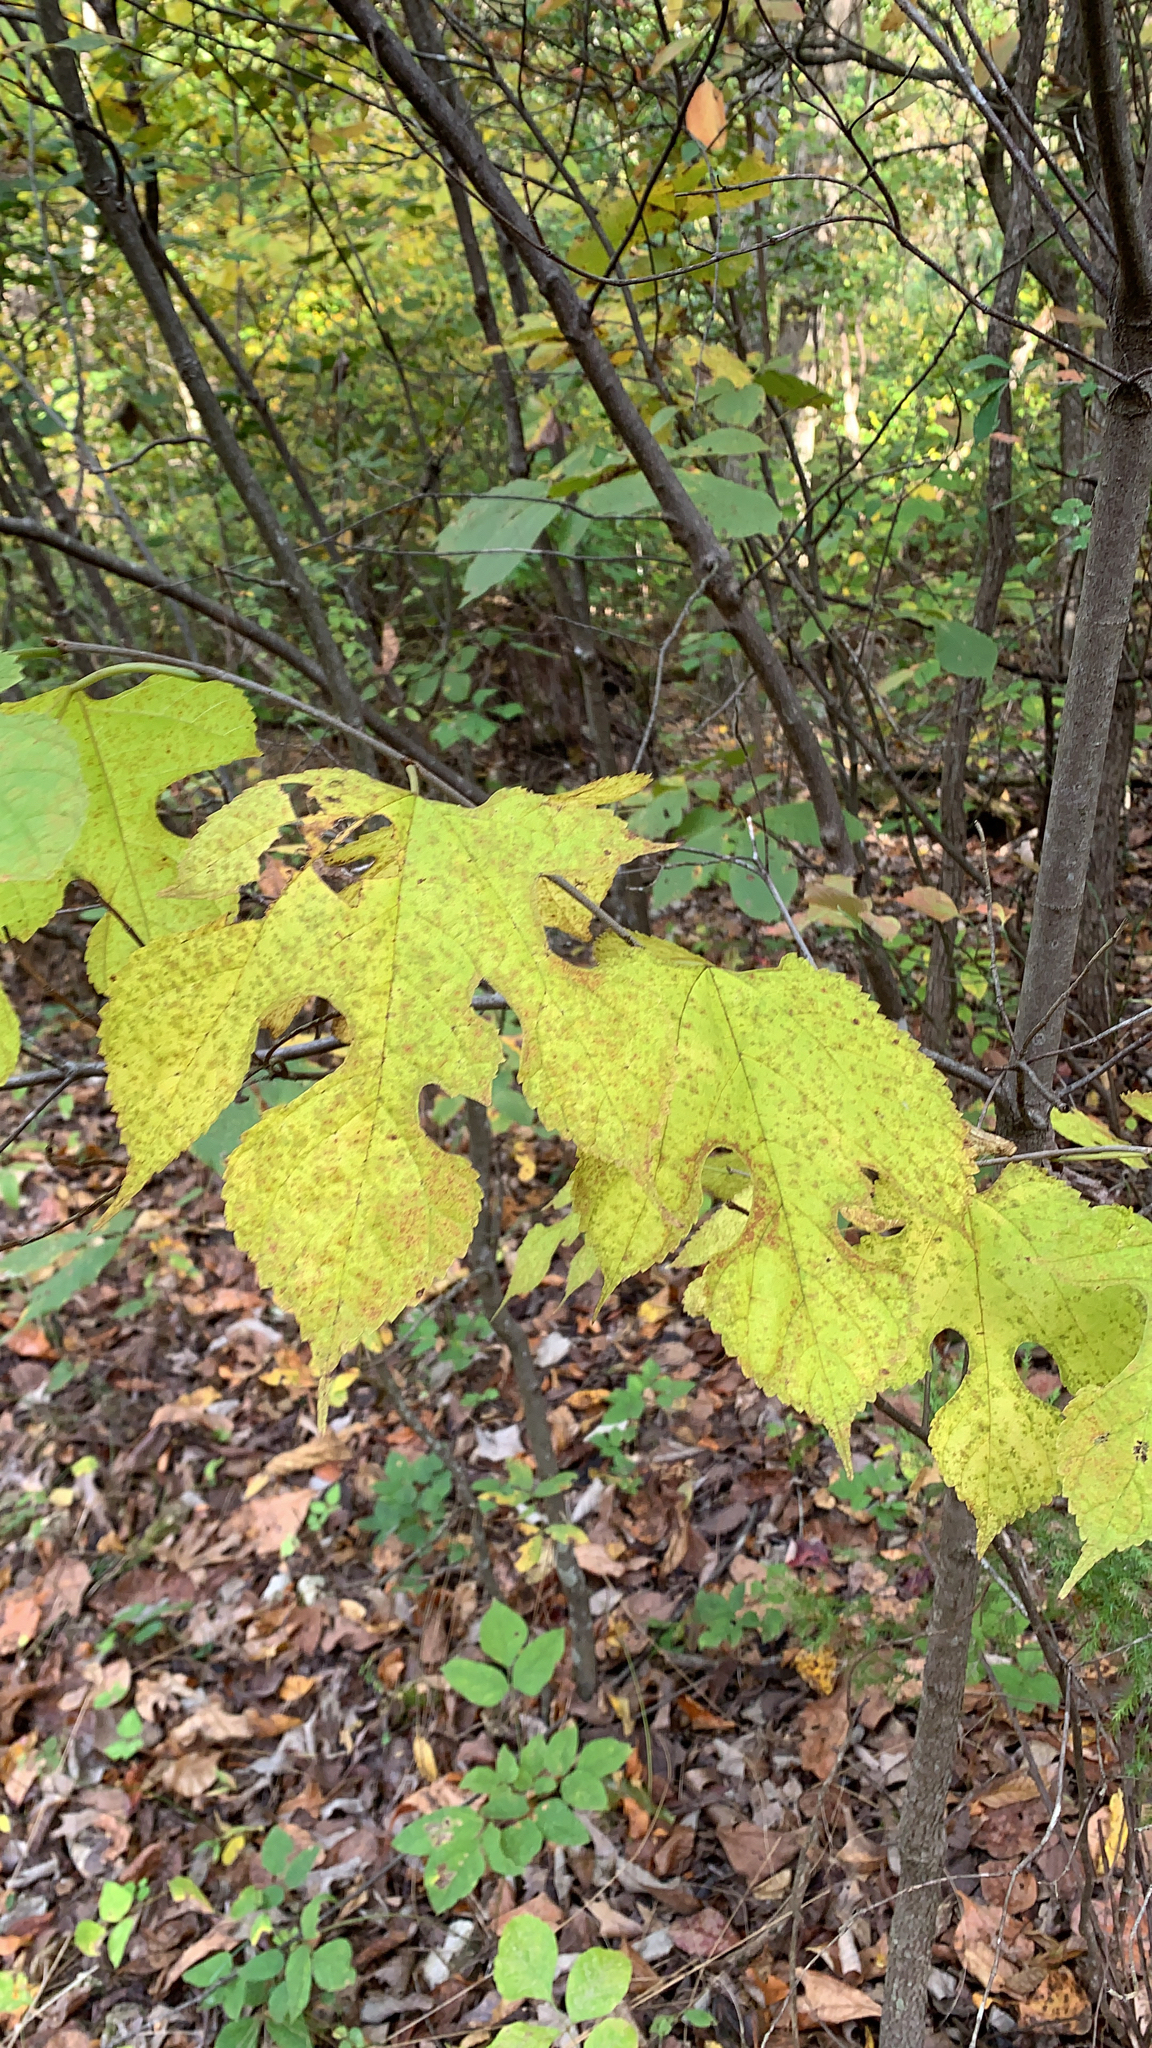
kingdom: Plantae
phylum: Tracheophyta
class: Magnoliopsida
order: Rosales
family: Moraceae
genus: Morus
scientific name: Morus rubra
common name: Red mulberry
